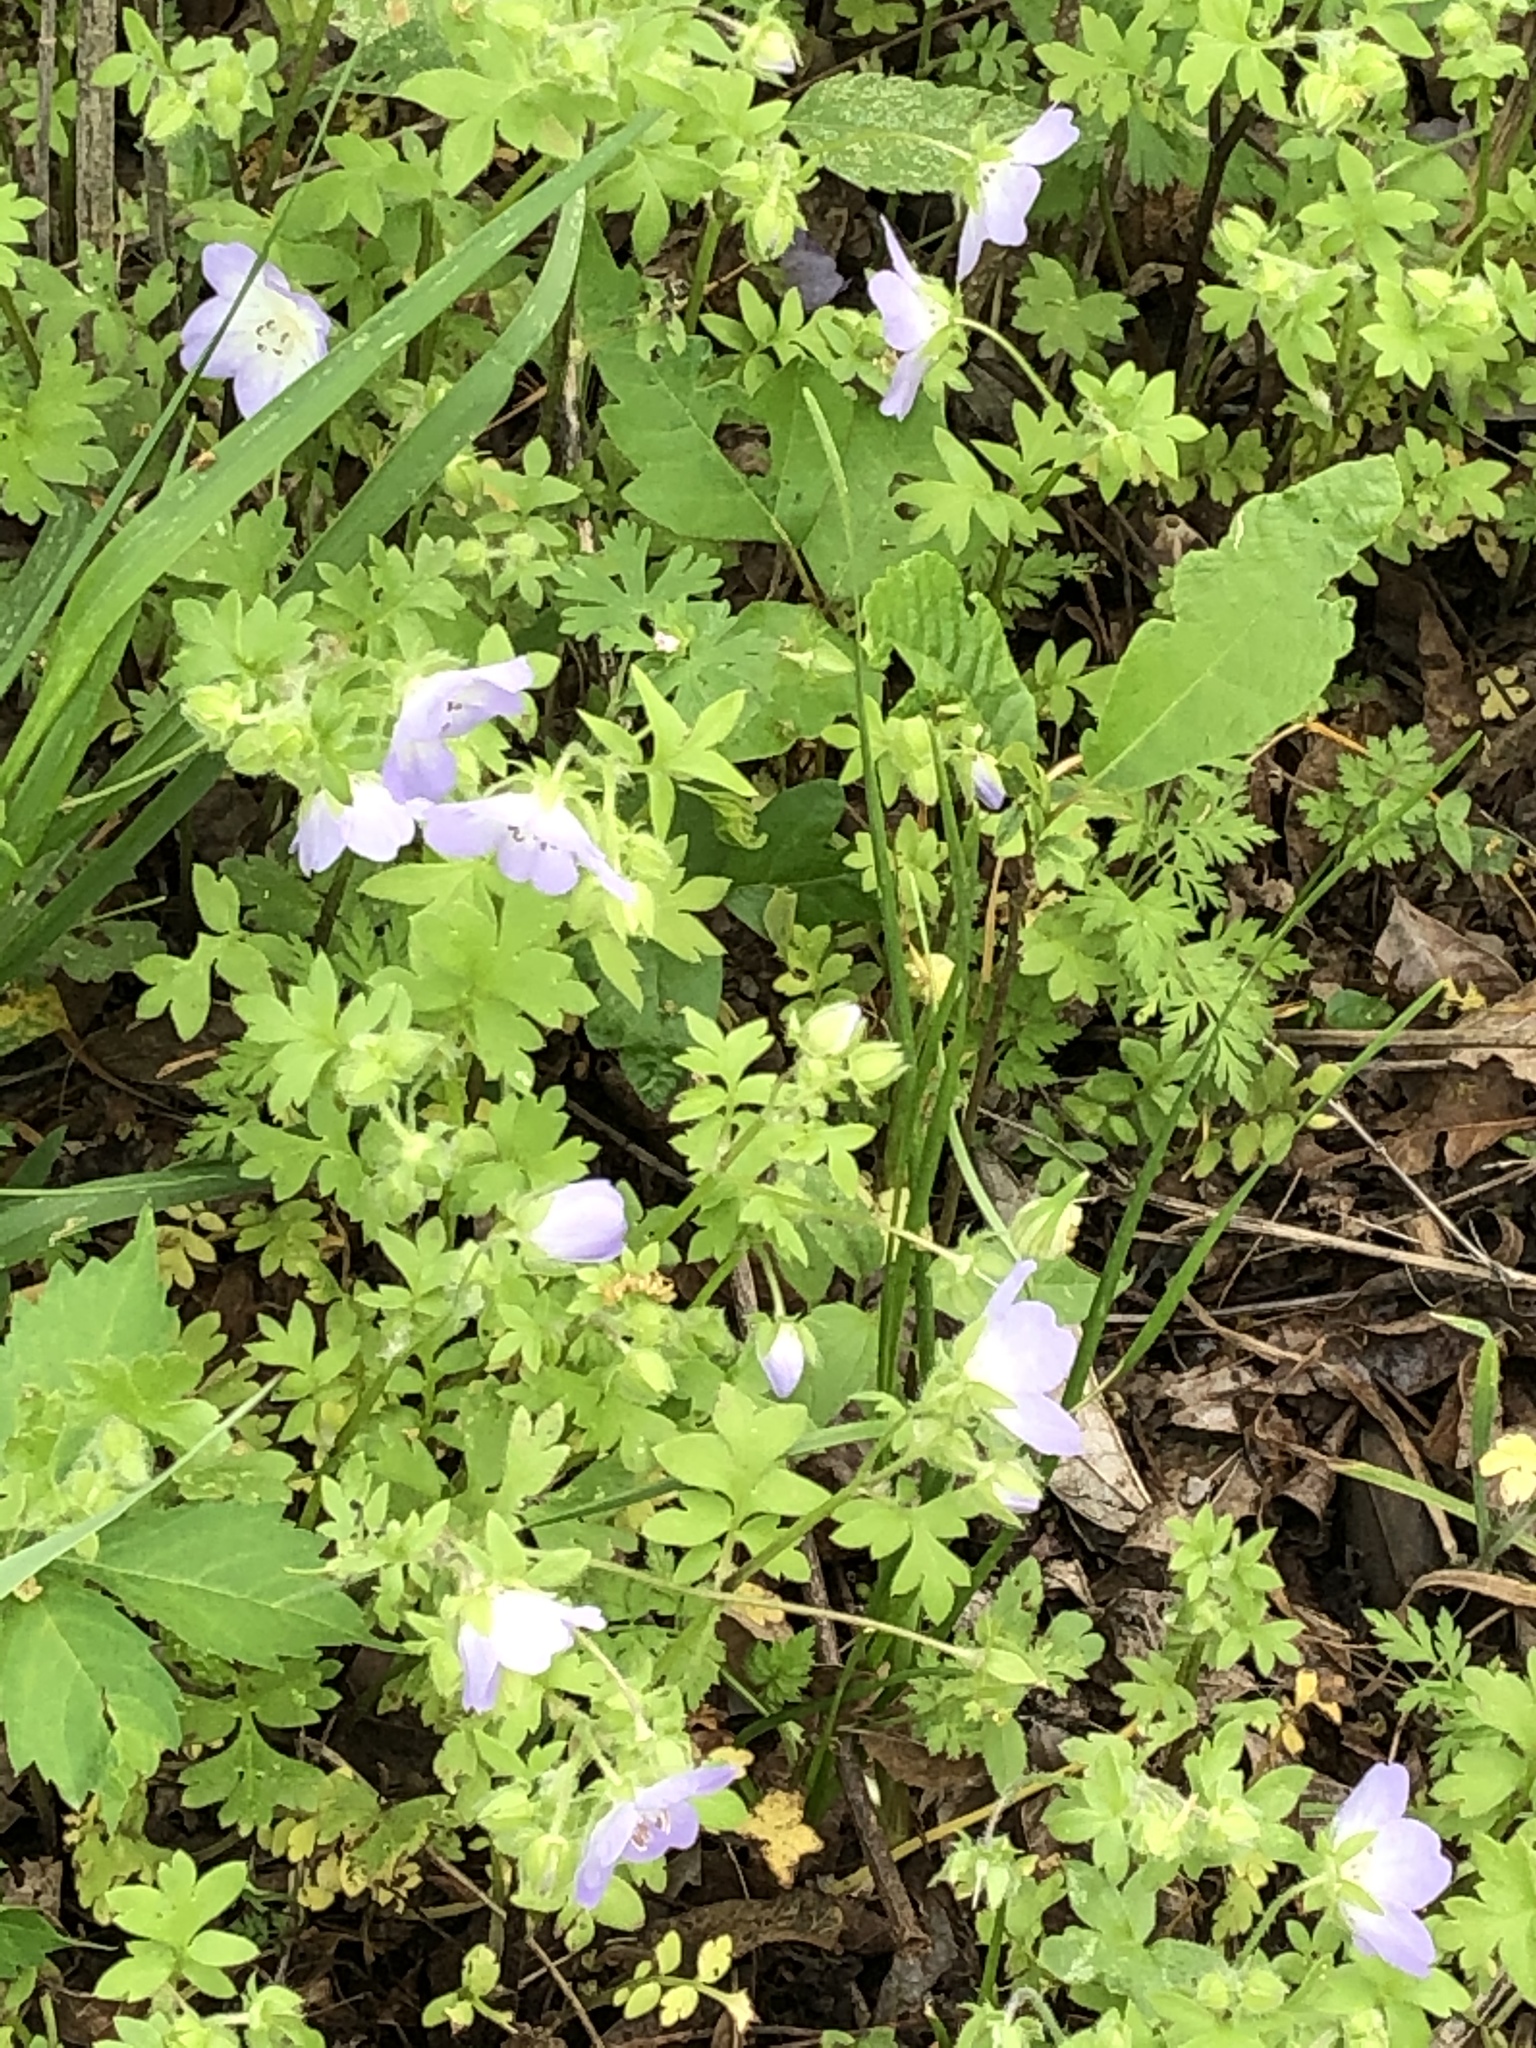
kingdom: Plantae
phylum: Tracheophyta
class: Magnoliopsida
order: Boraginales
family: Hydrophyllaceae
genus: Nemophila
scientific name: Nemophila phacelioides
